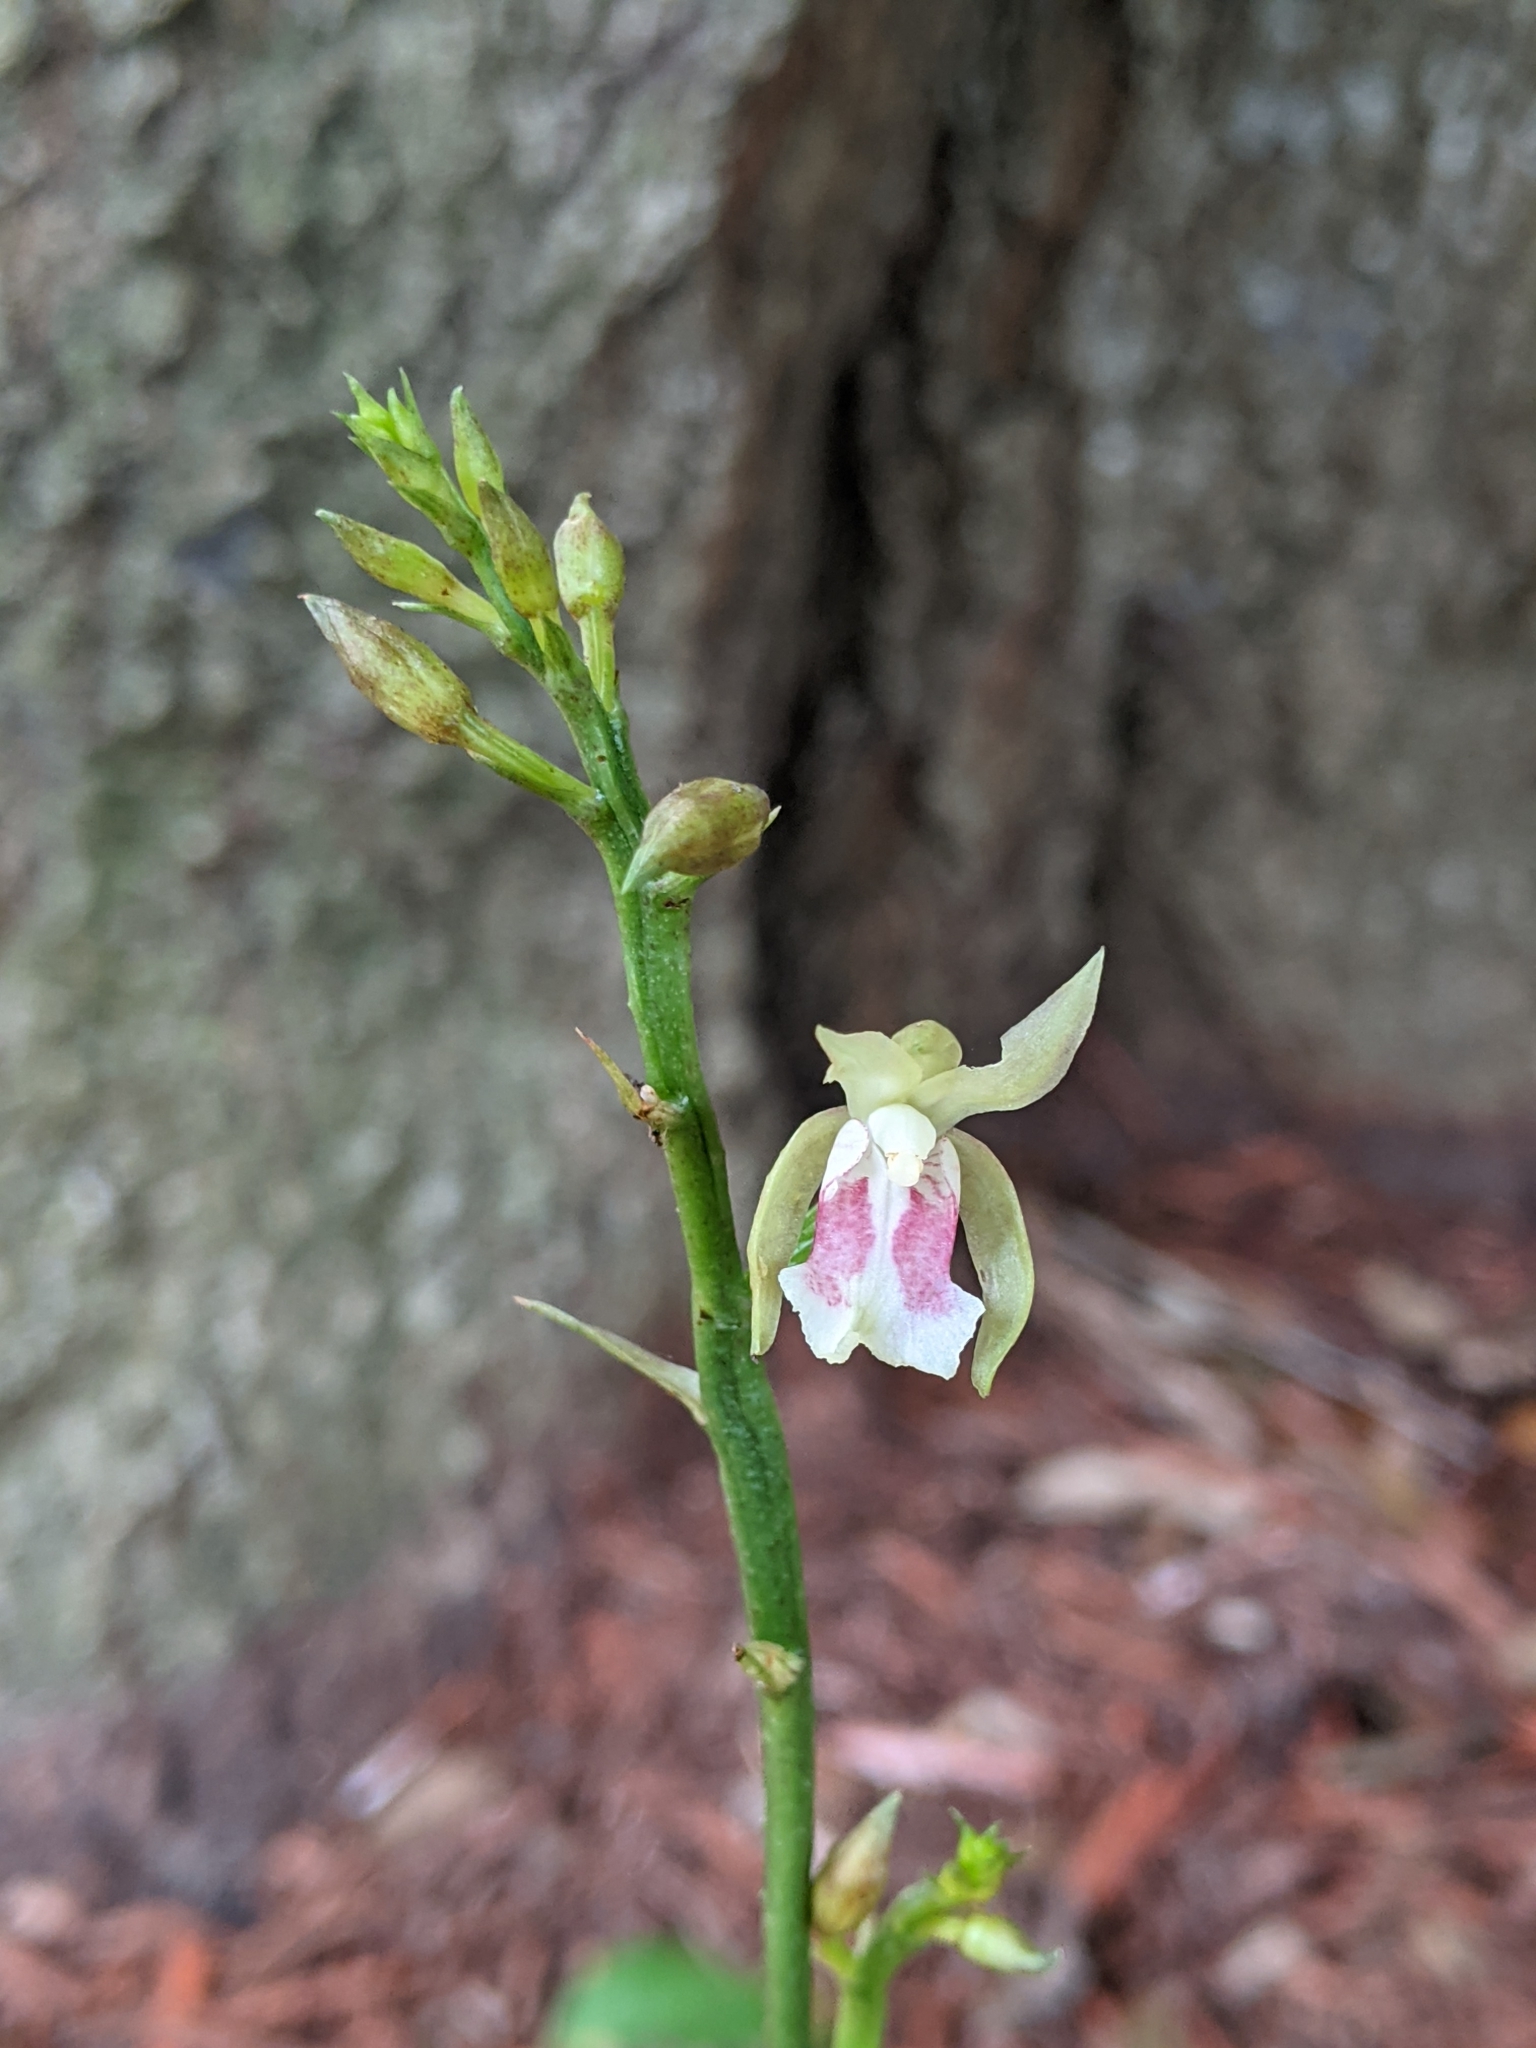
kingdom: Plantae
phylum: Tracheophyta
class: Liliopsida
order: Asparagales
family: Orchidaceae
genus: Eulophia
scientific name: Eulophia maculata
